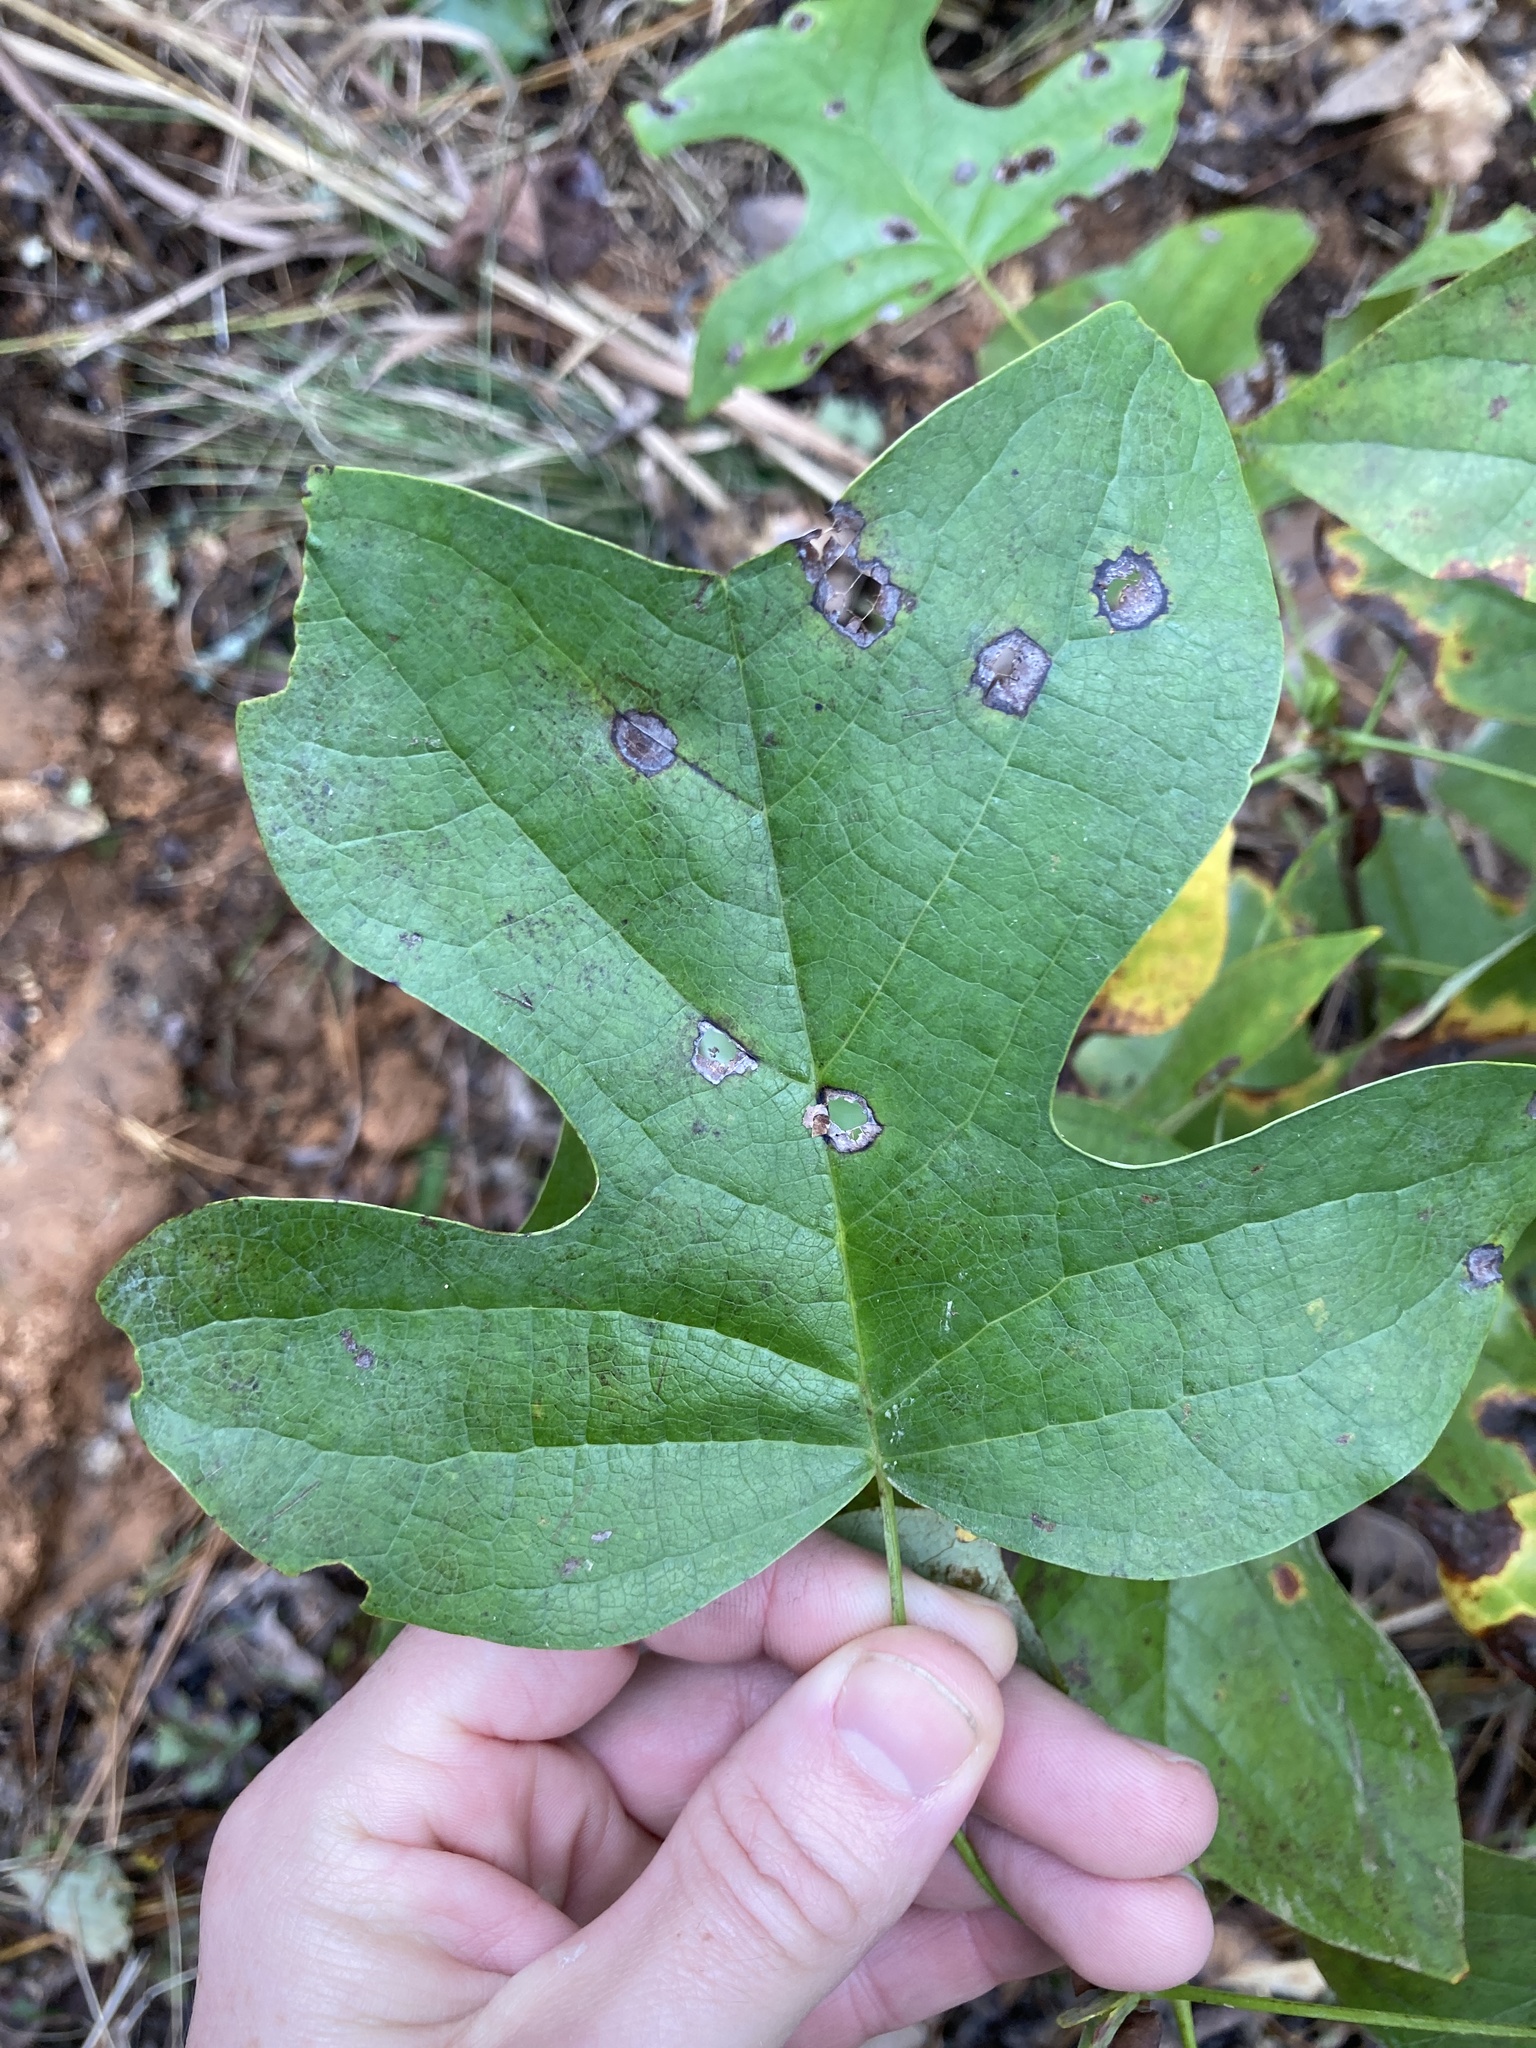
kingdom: Plantae
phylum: Tracheophyta
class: Magnoliopsida
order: Magnoliales
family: Magnoliaceae
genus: Liriodendron
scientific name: Liriodendron tulipifera
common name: Tulip tree
